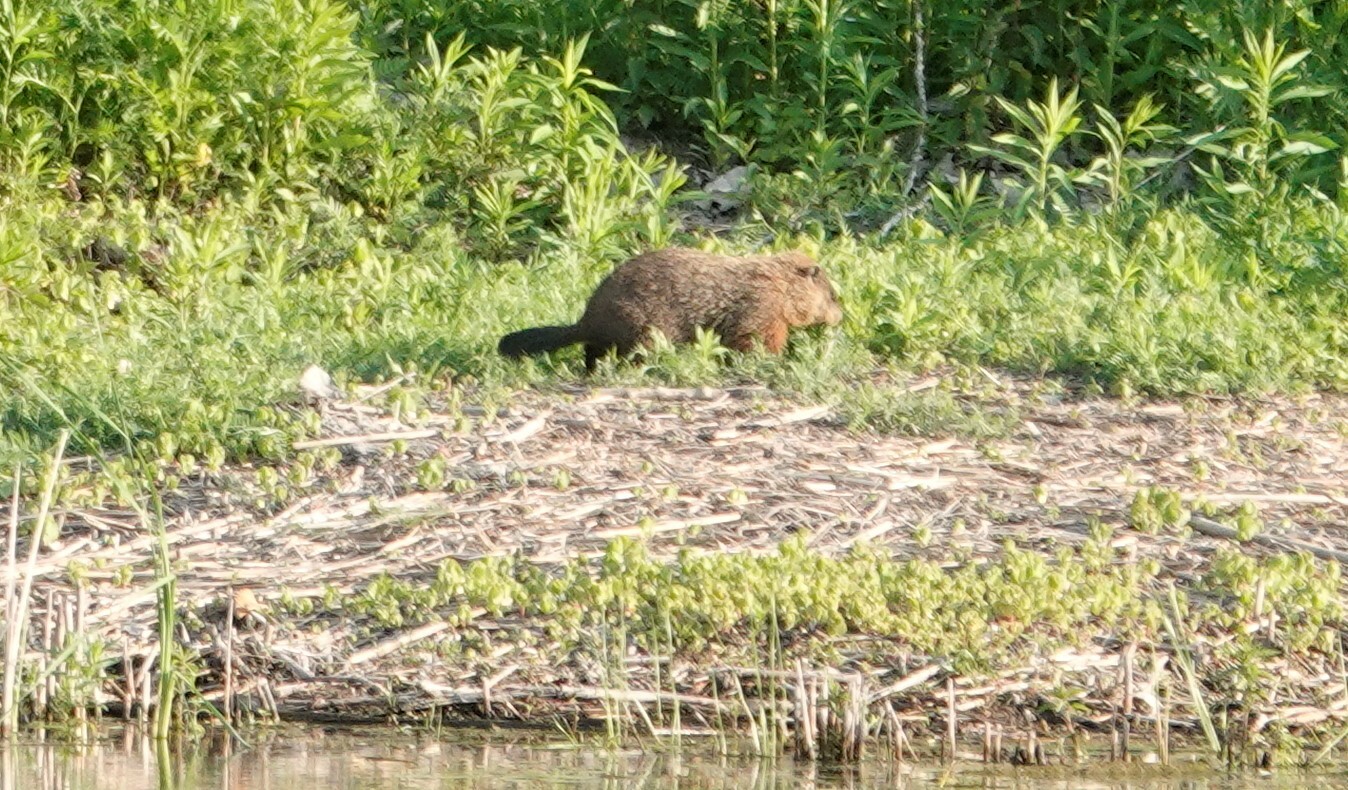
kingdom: Animalia
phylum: Chordata
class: Mammalia
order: Rodentia
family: Sciuridae
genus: Marmota
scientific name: Marmota monax
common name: Groundhog
